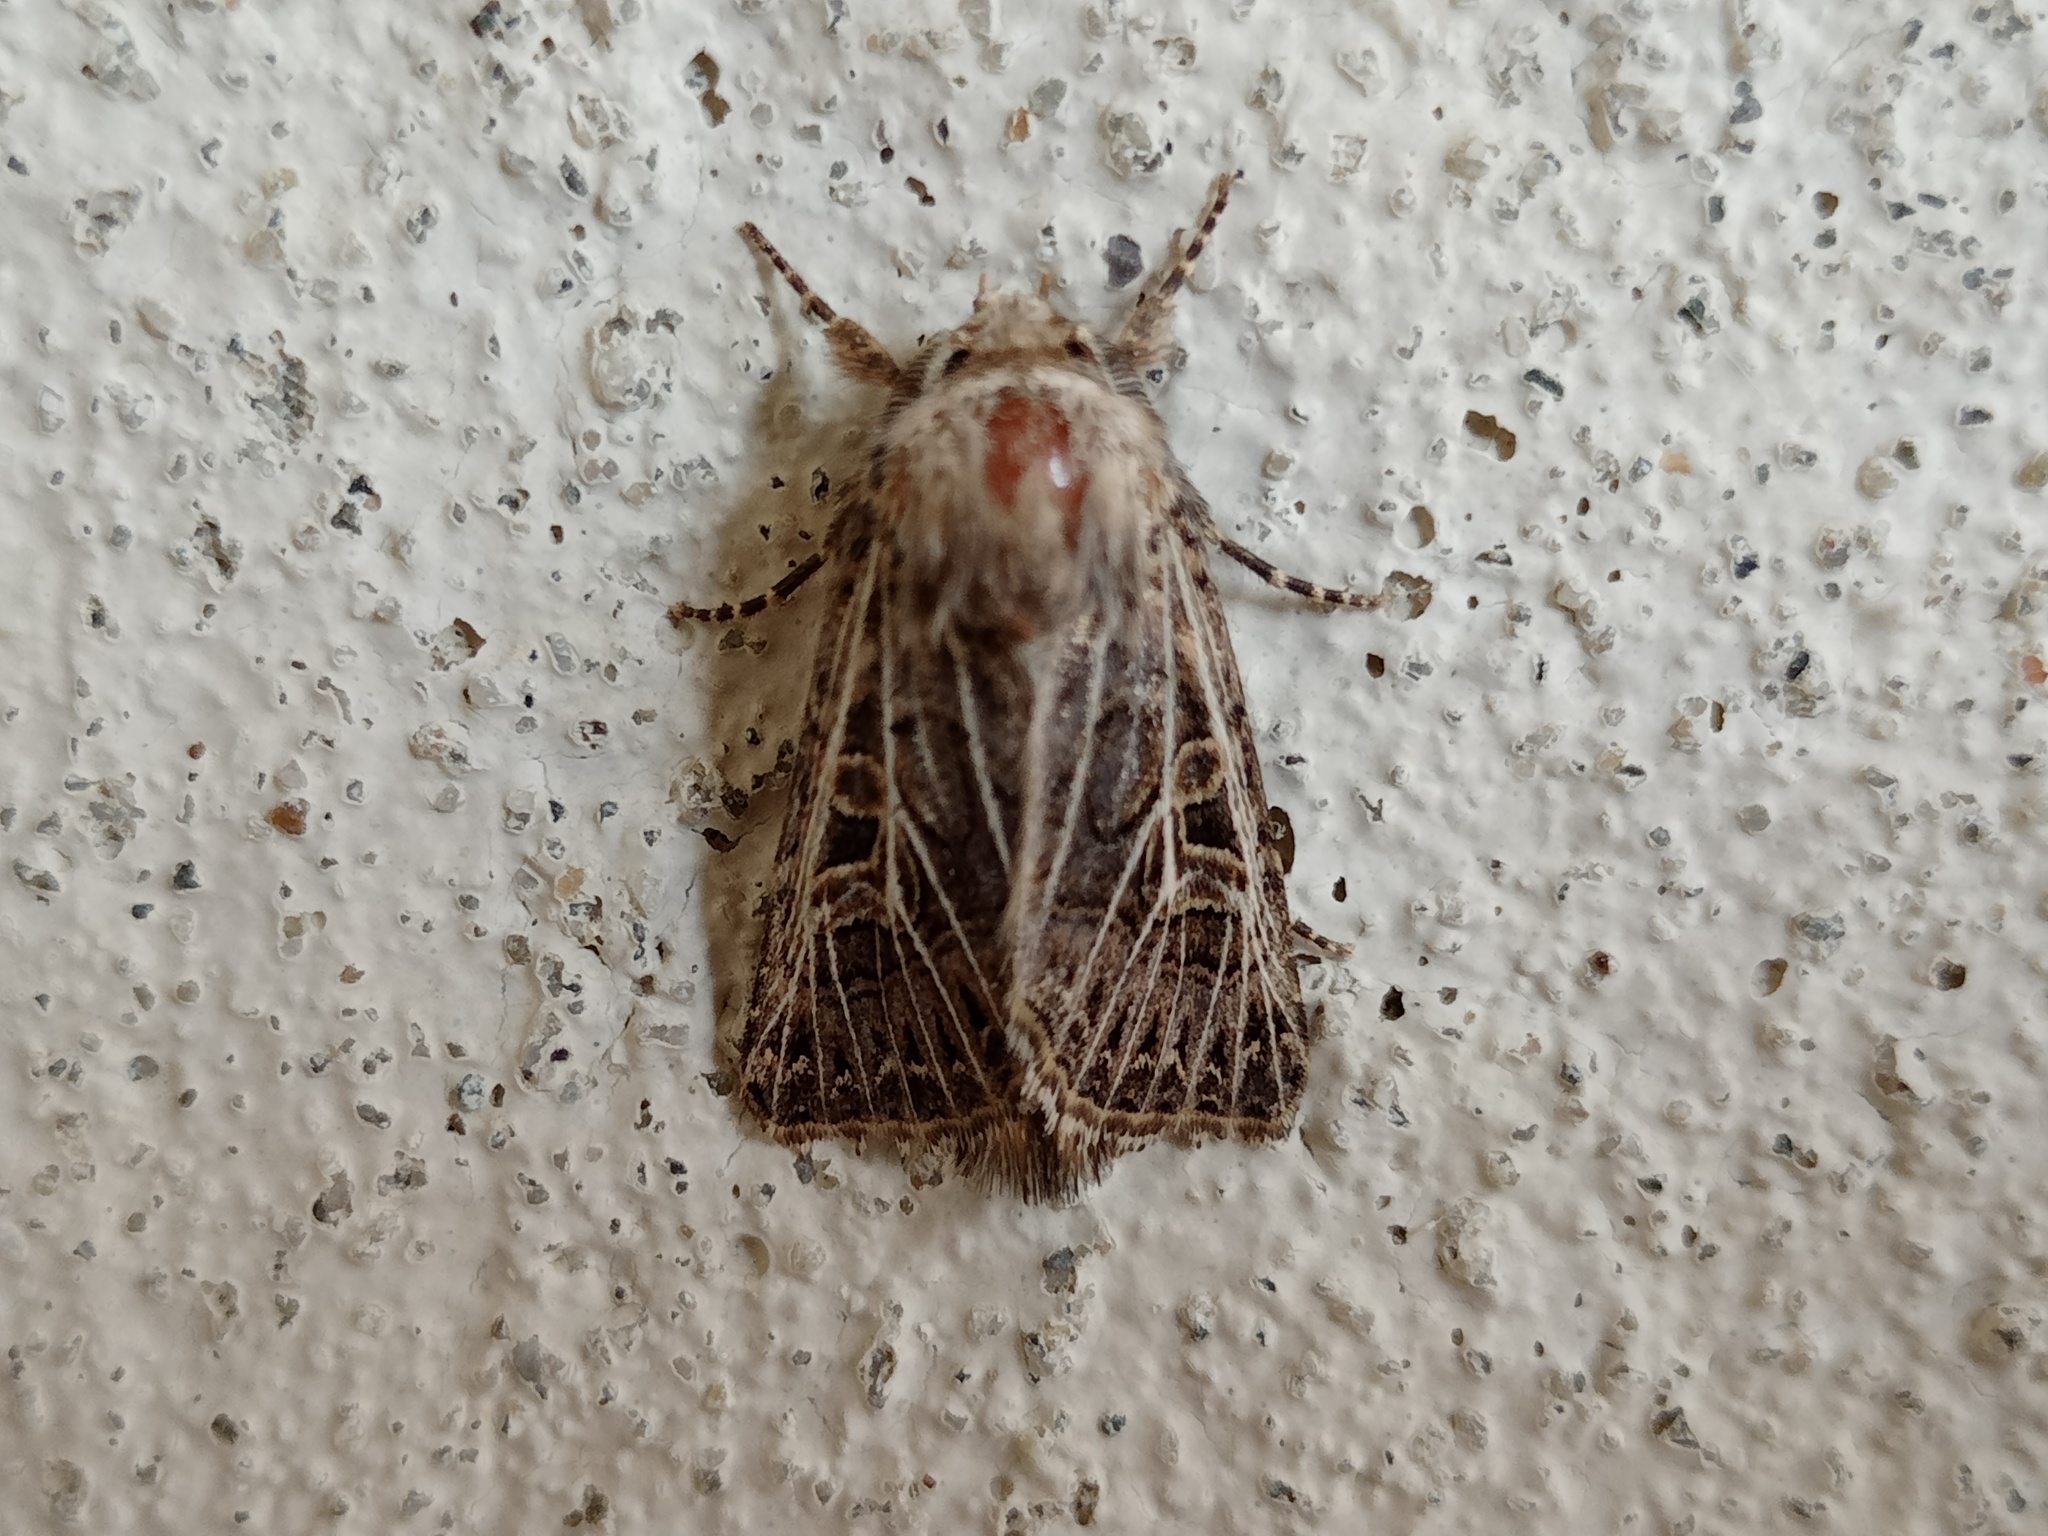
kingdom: Animalia
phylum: Arthropoda
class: Insecta
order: Lepidoptera
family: Noctuidae
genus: Tholera
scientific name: Tholera decimalis
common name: Feathered gothic
